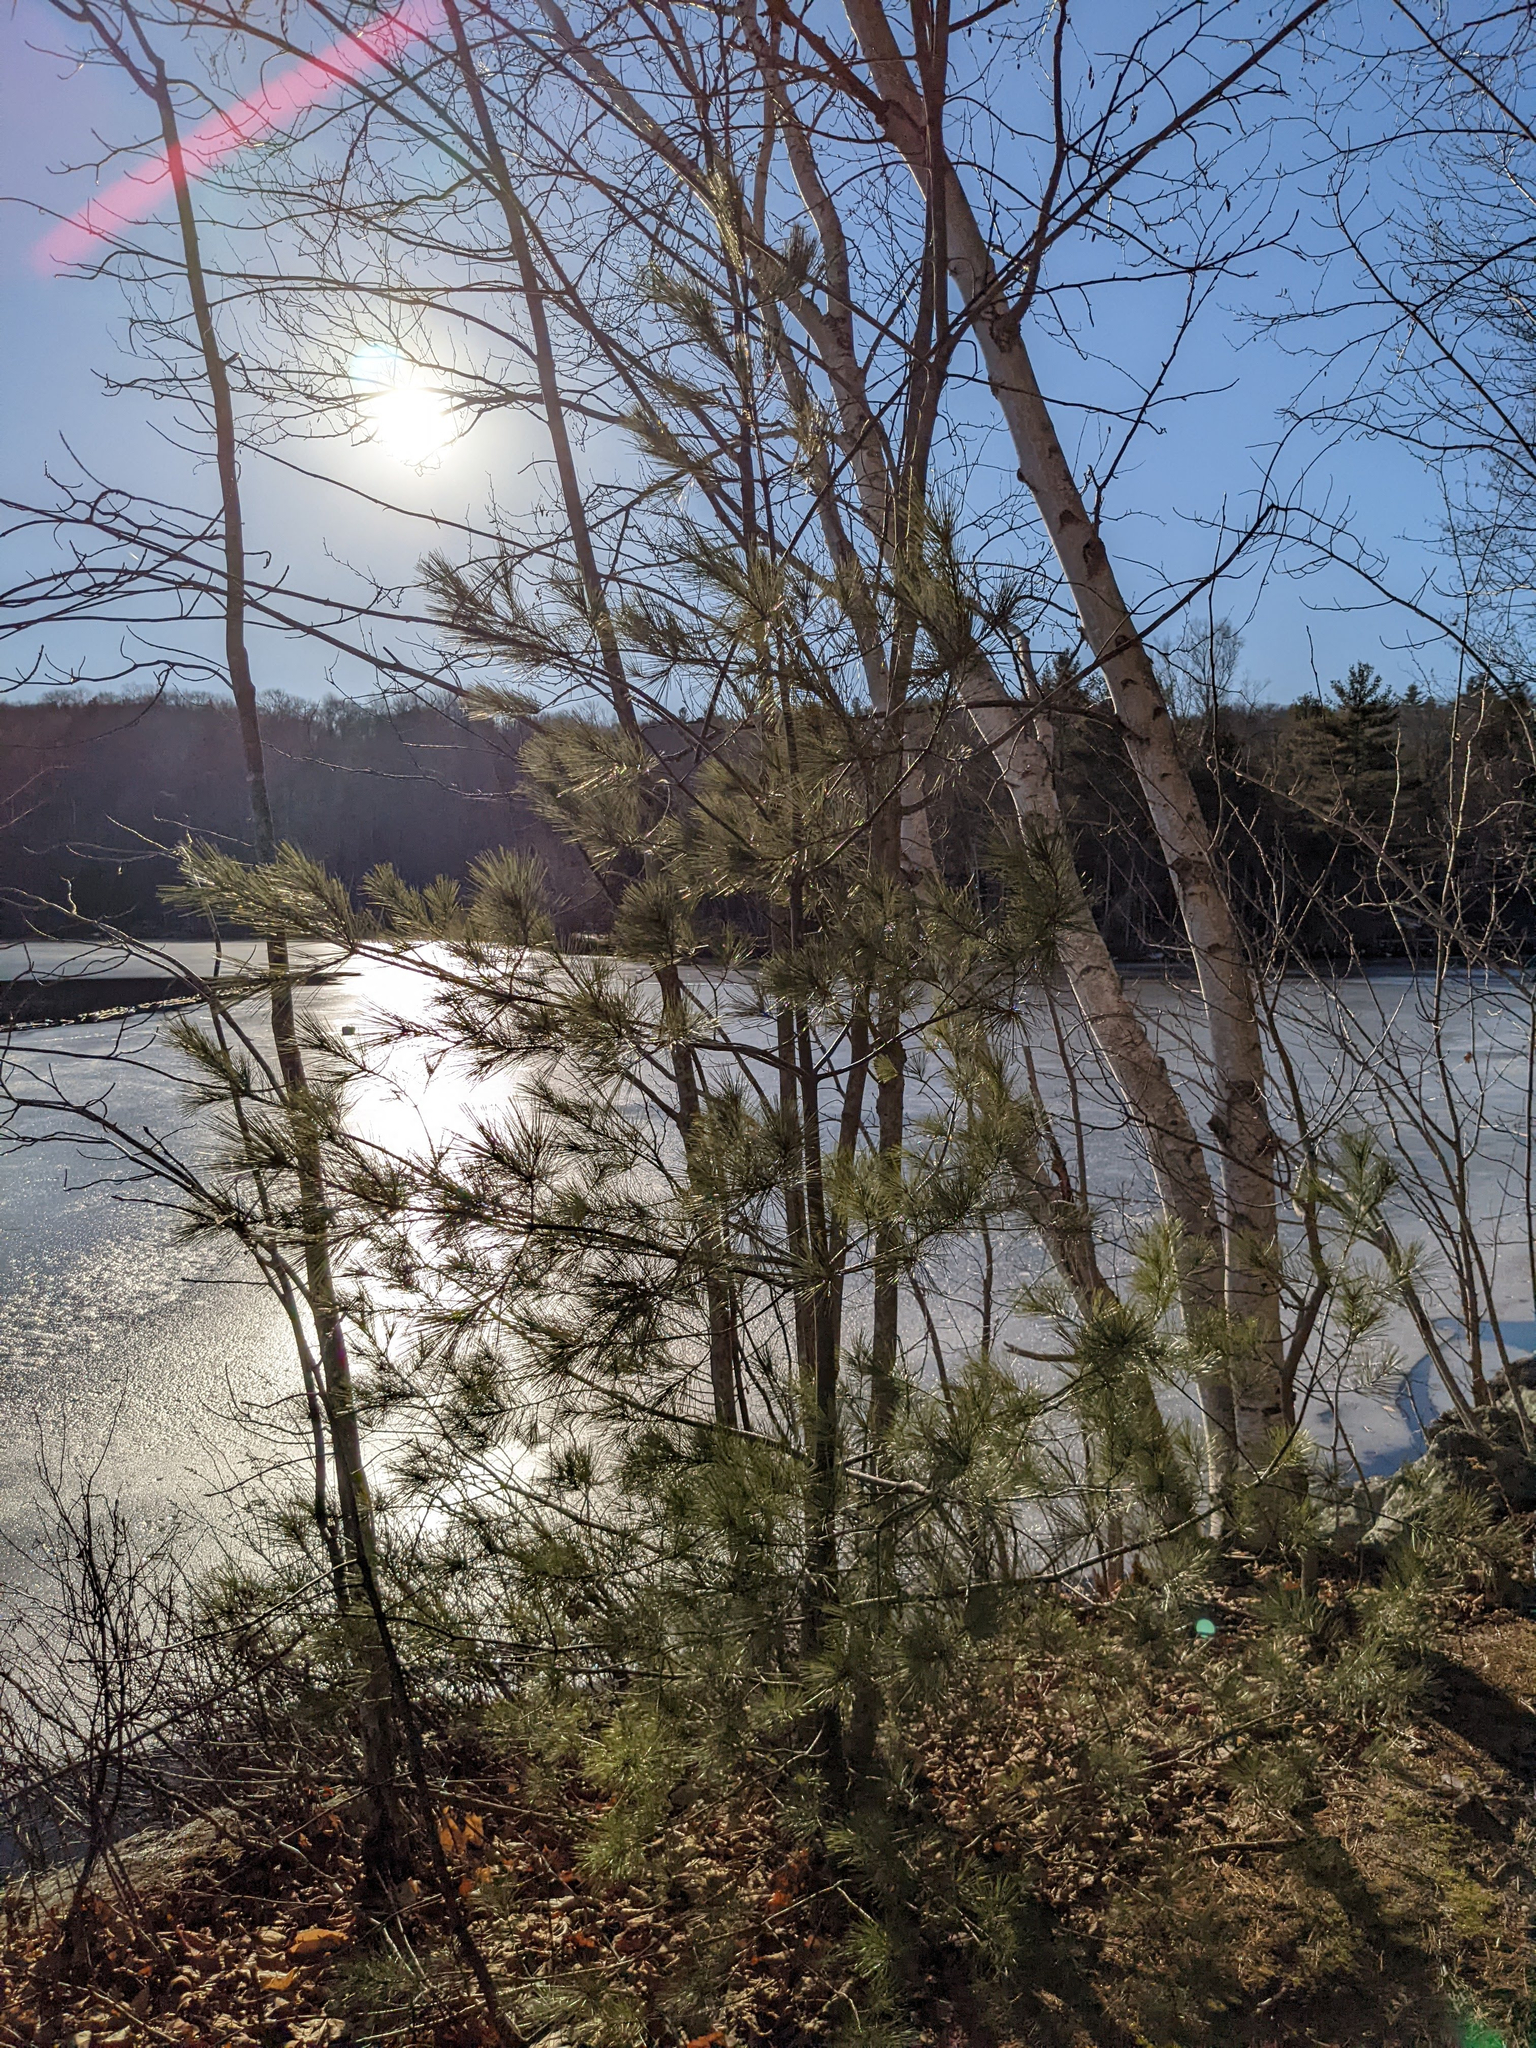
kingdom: Plantae
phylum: Tracheophyta
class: Pinopsida
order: Pinales
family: Pinaceae
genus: Pinus
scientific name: Pinus strobus
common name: Weymouth pine
